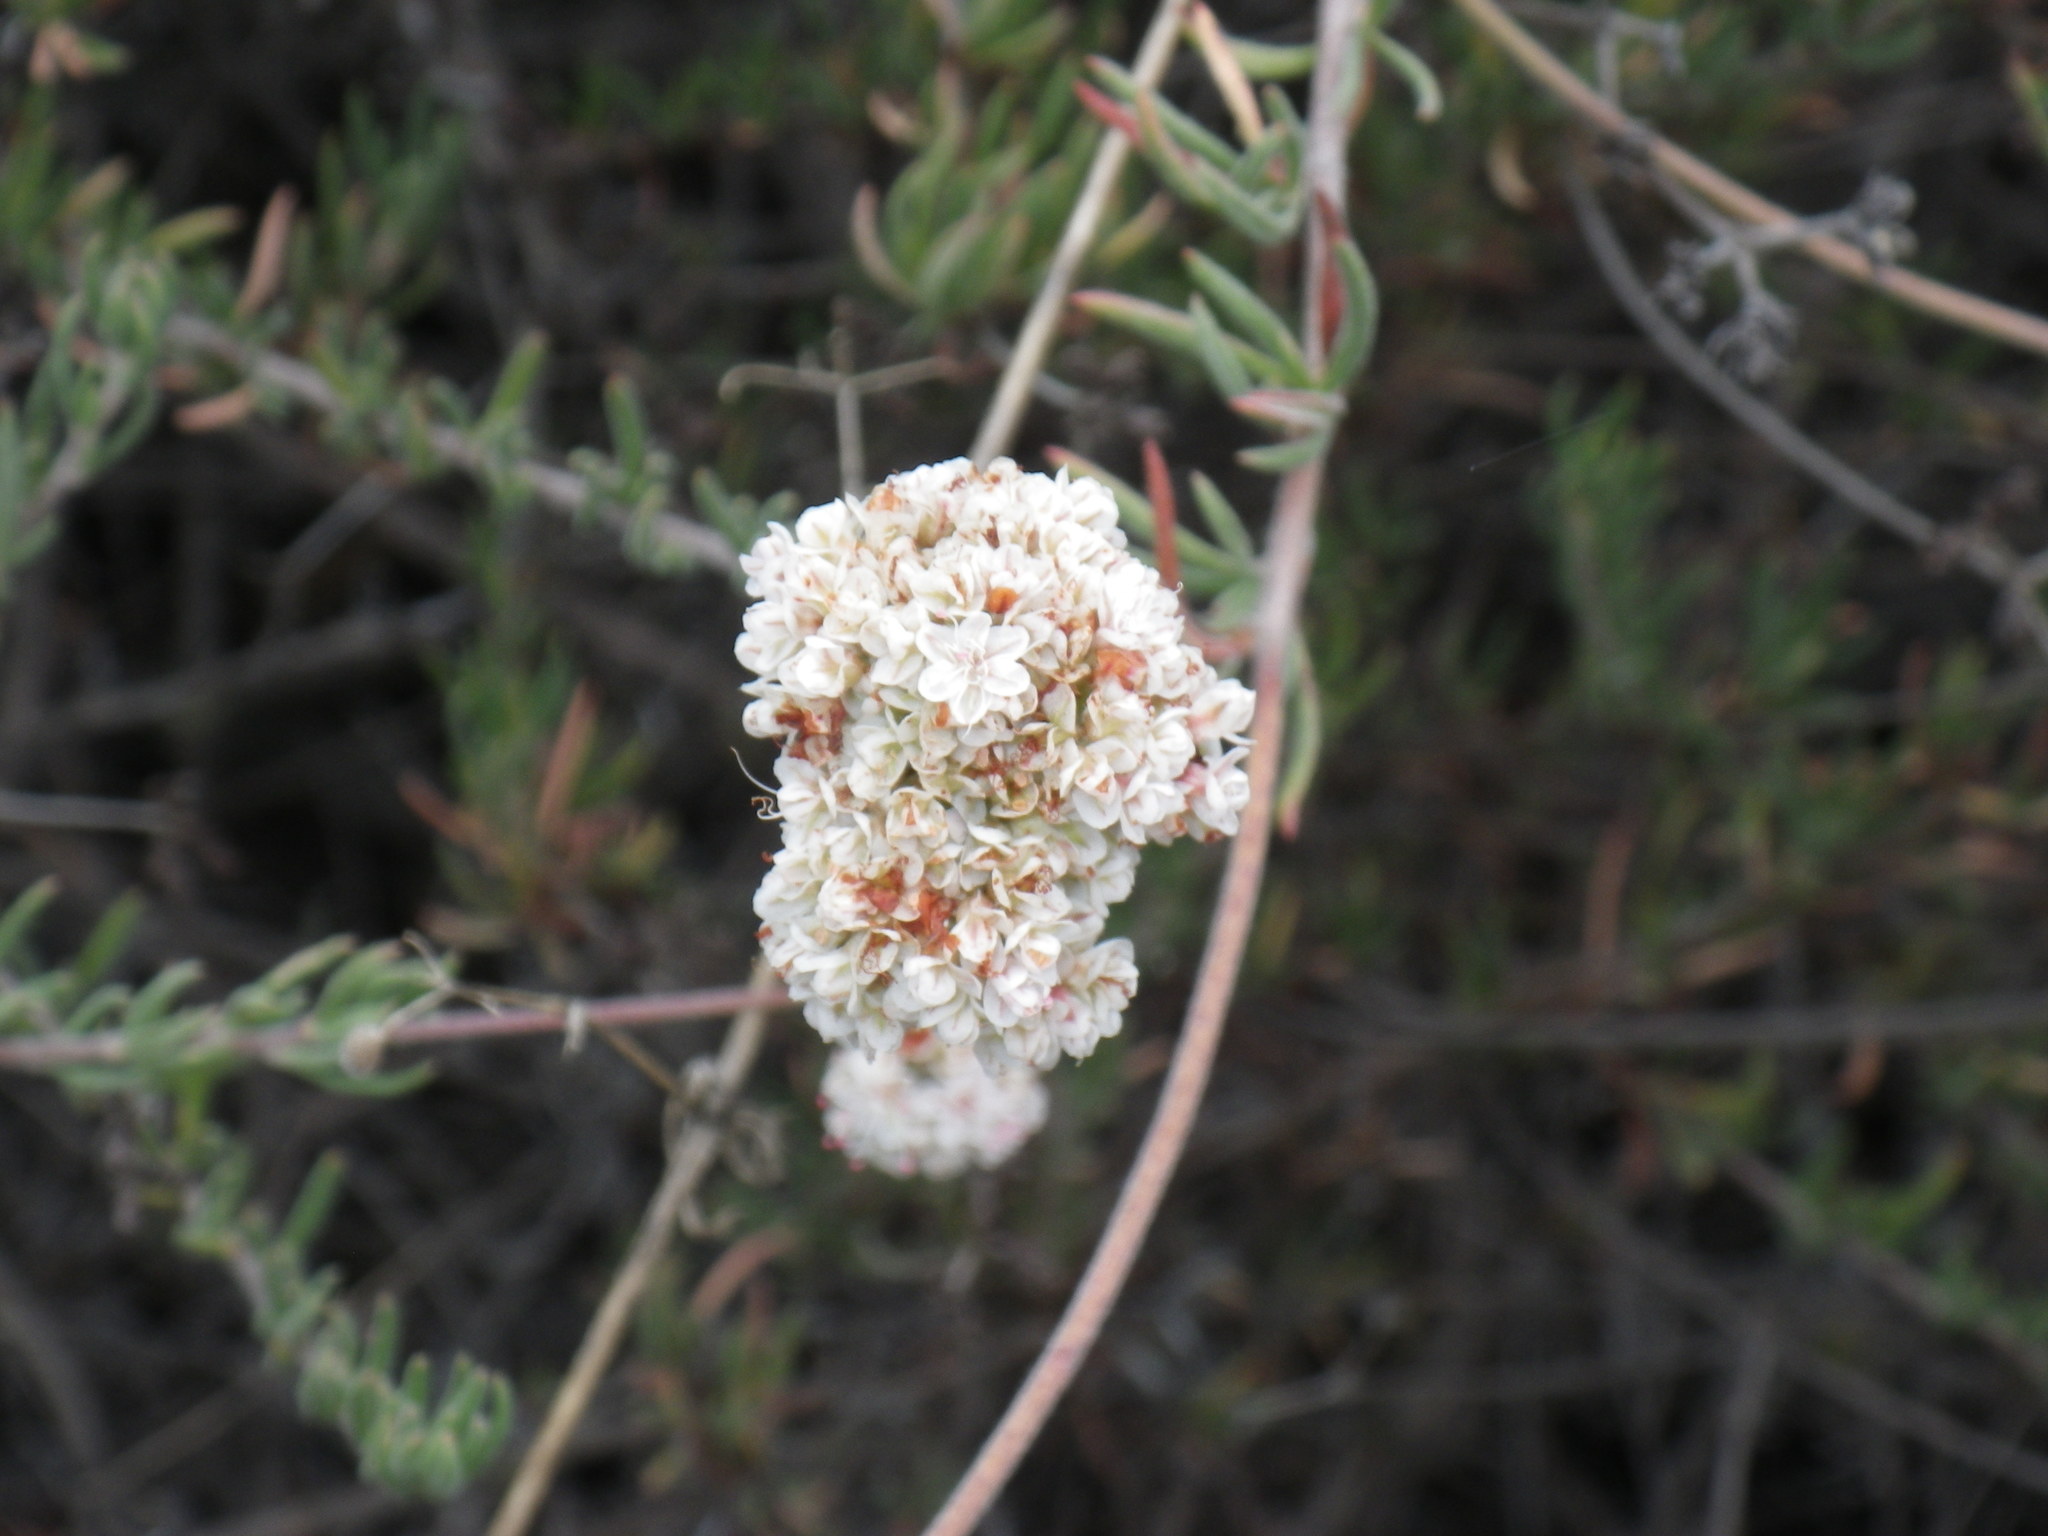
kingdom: Plantae
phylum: Tracheophyta
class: Magnoliopsida
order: Caryophyllales
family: Polygonaceae
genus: Eriogonum
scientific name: Eriogonum fasciculatum
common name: California wild buckwheat
